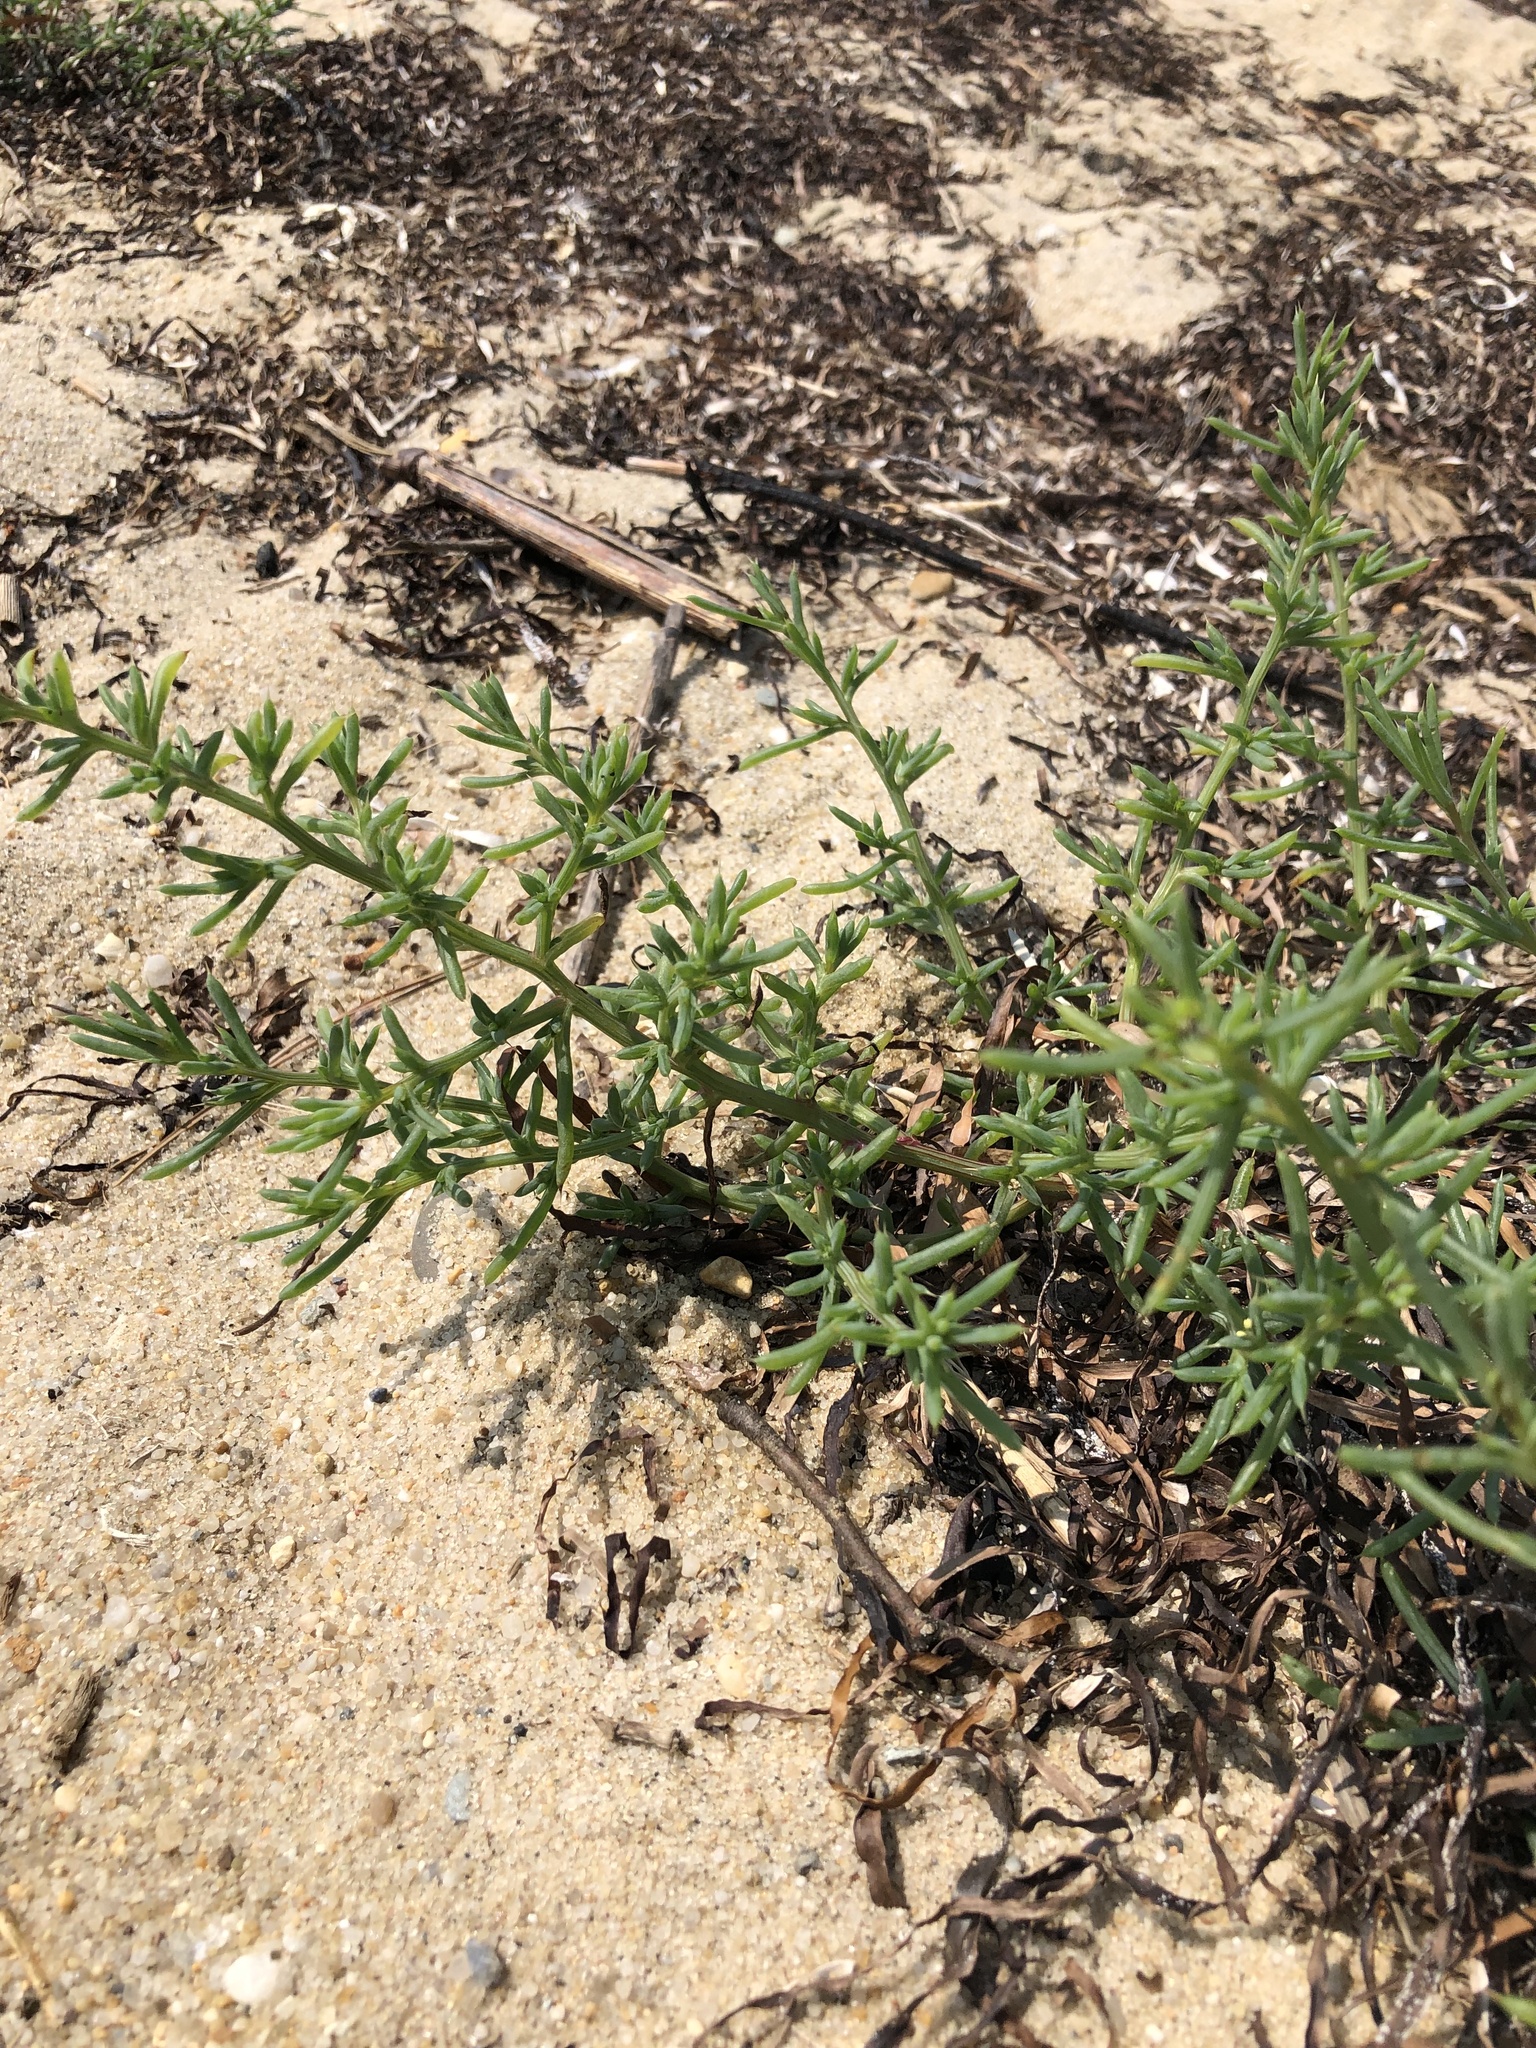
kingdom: Plantae
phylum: Tracheophyta
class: Magnoliopsida
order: Caryophyllales
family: Amaranthaceae
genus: Salsola
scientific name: Salsola kali
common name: Saltwort
